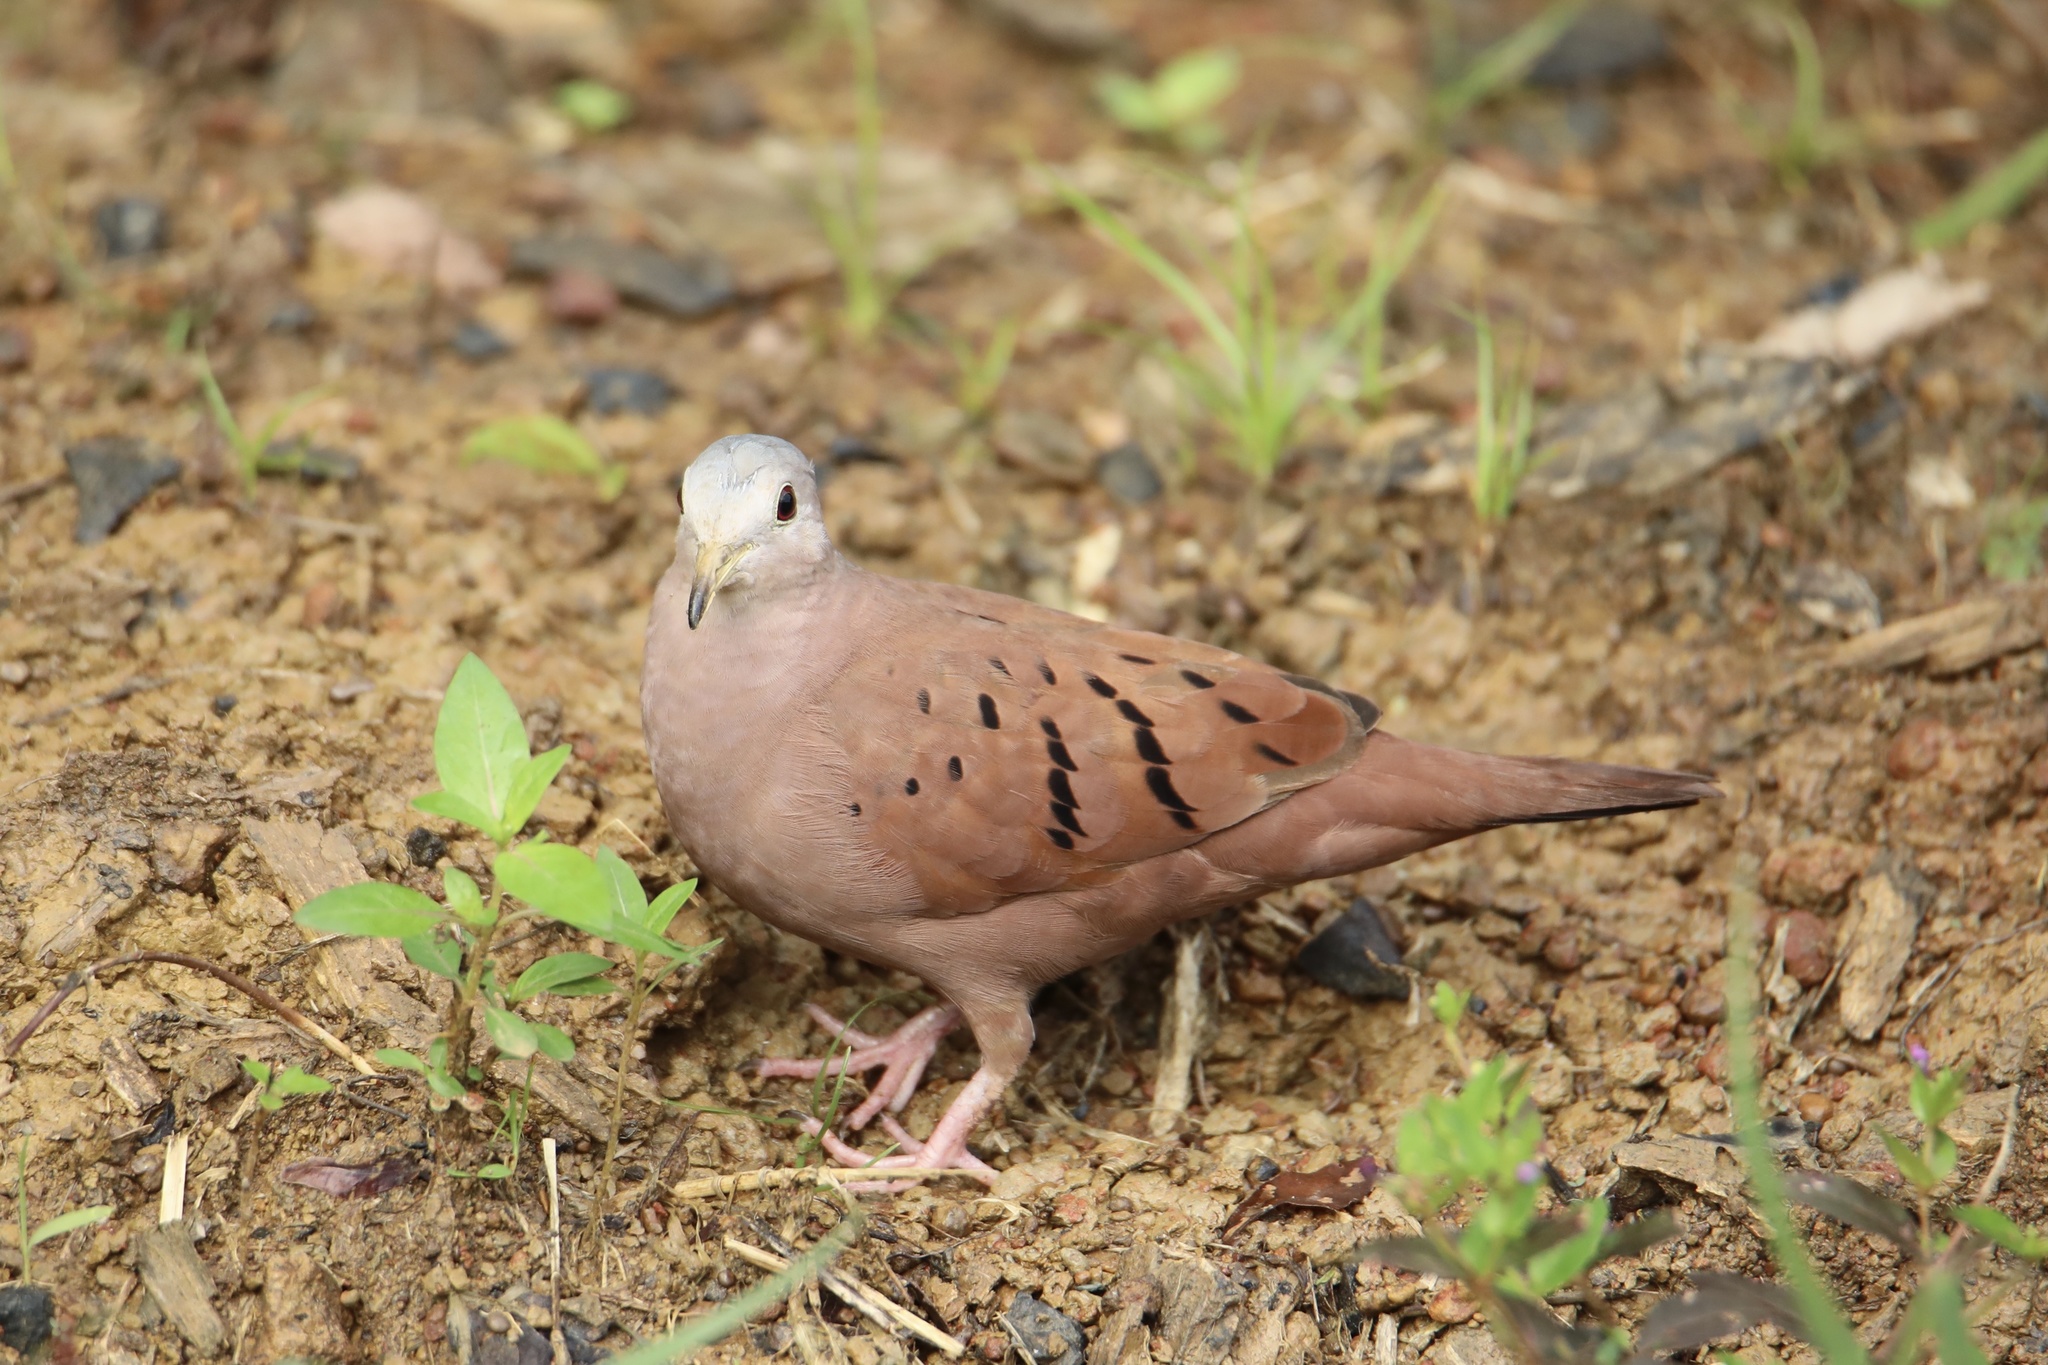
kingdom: Animalia
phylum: Chordata
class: Aves
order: Columbiformes
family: Columbidae
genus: Columbina
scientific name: Columbina talpacoti
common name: Ruddy ground dove
